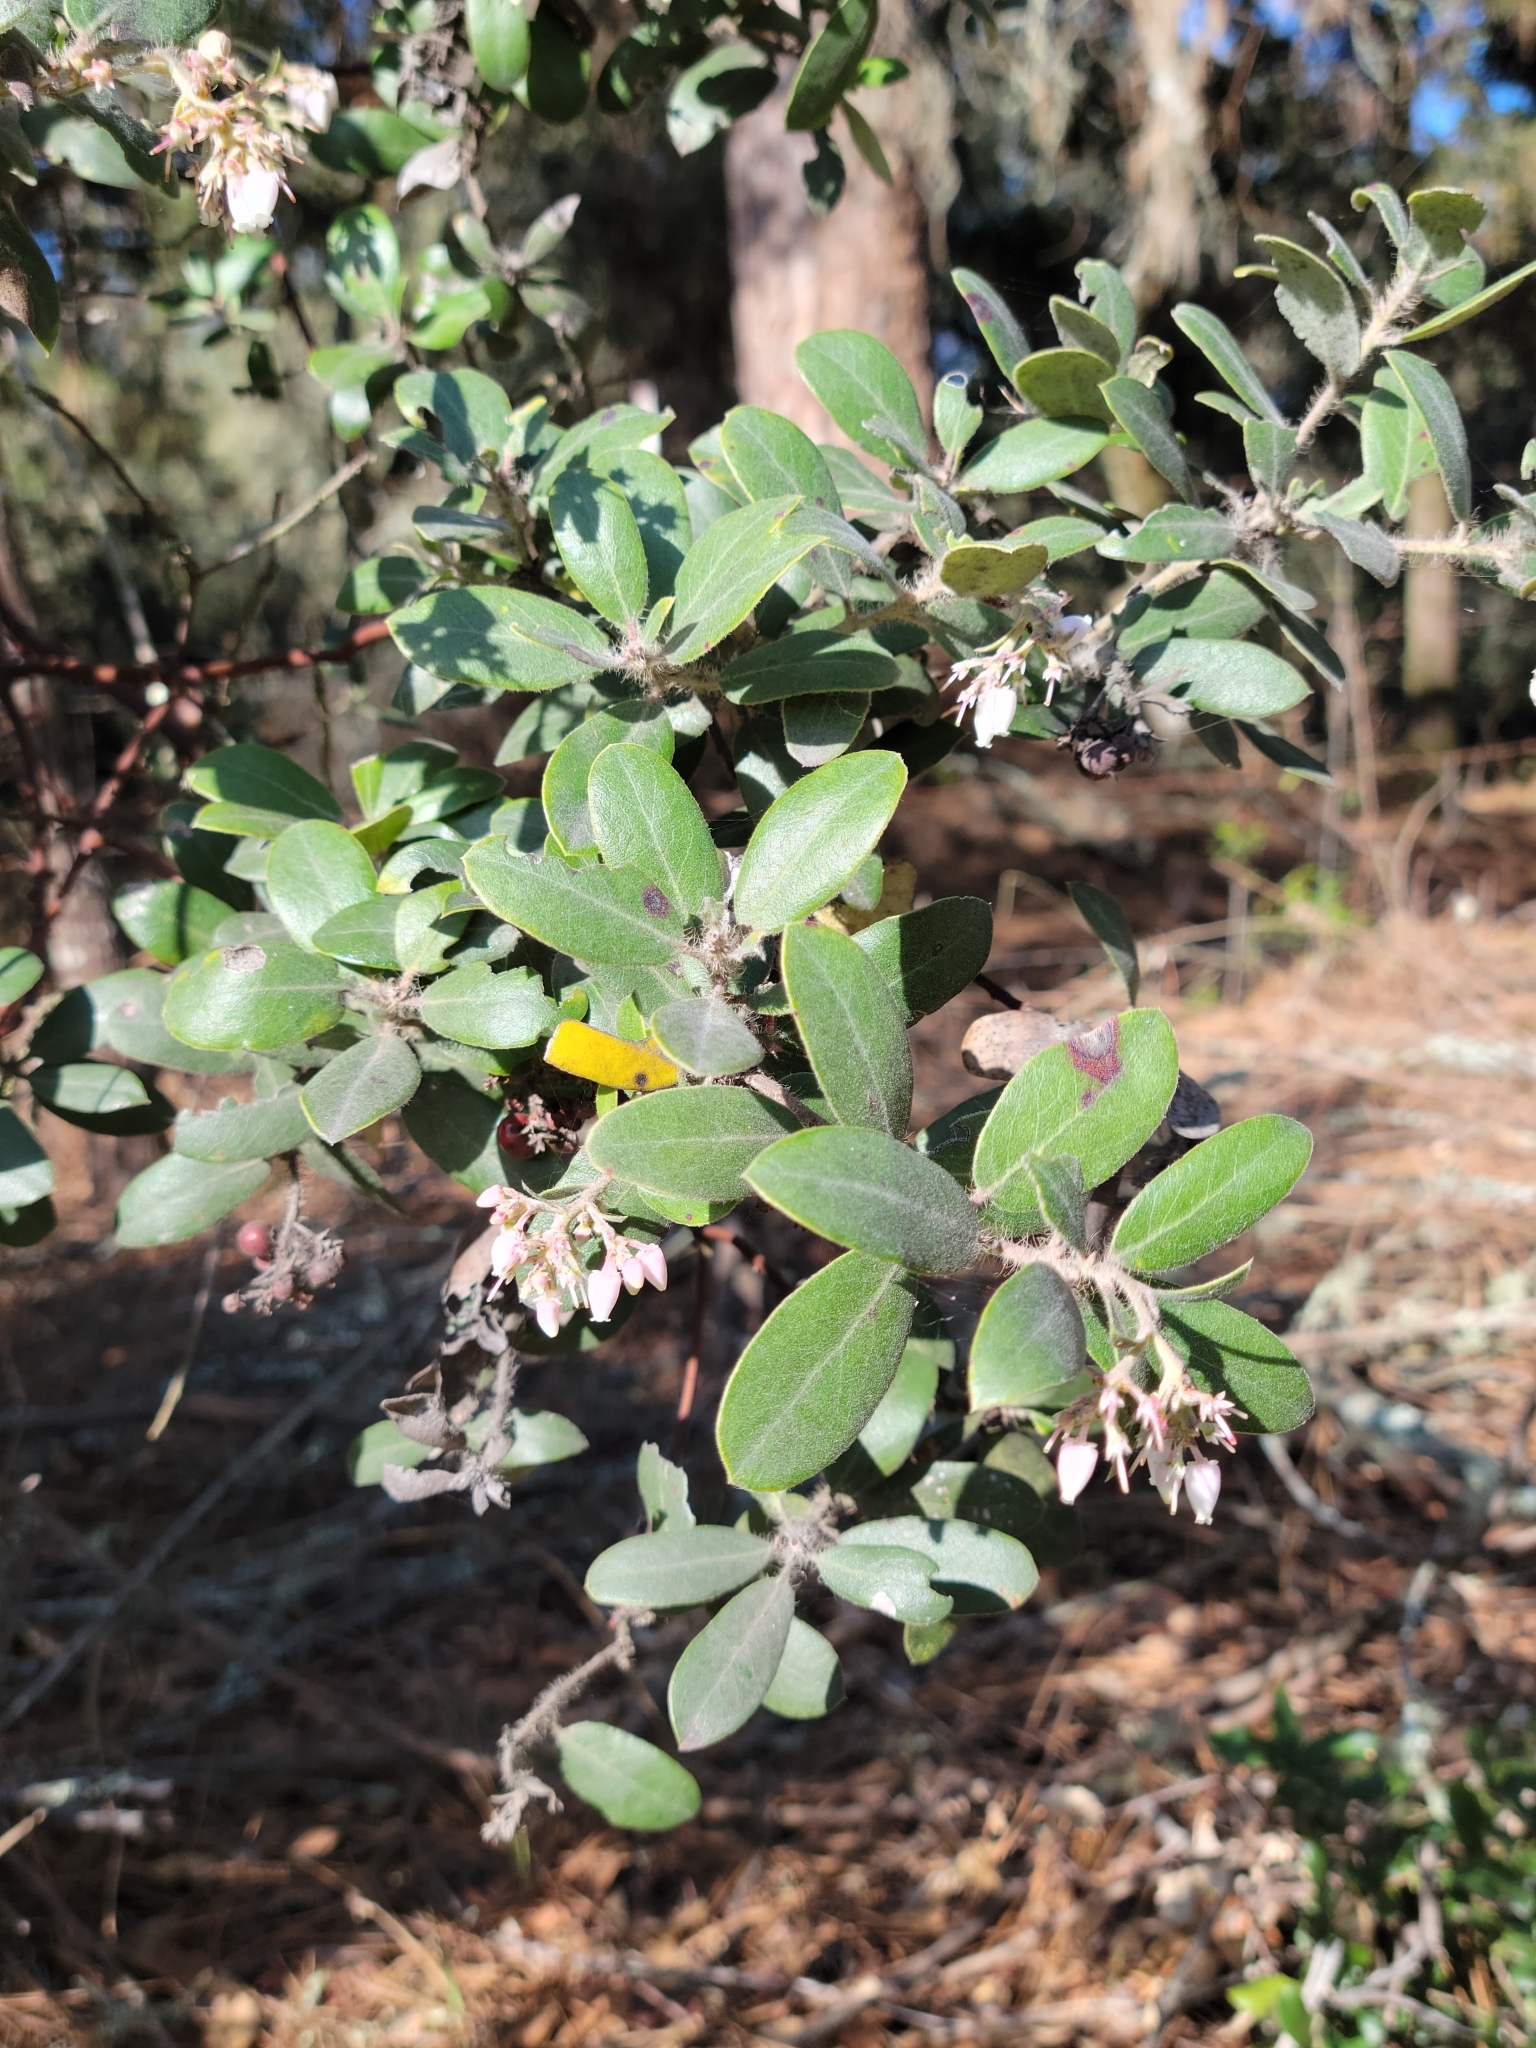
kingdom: Plantae
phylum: Tracheophyta
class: Magnoliopsida
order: Ericales
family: Ericaceae
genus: Arctostaphylos
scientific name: Arctostaphylos crustacea
